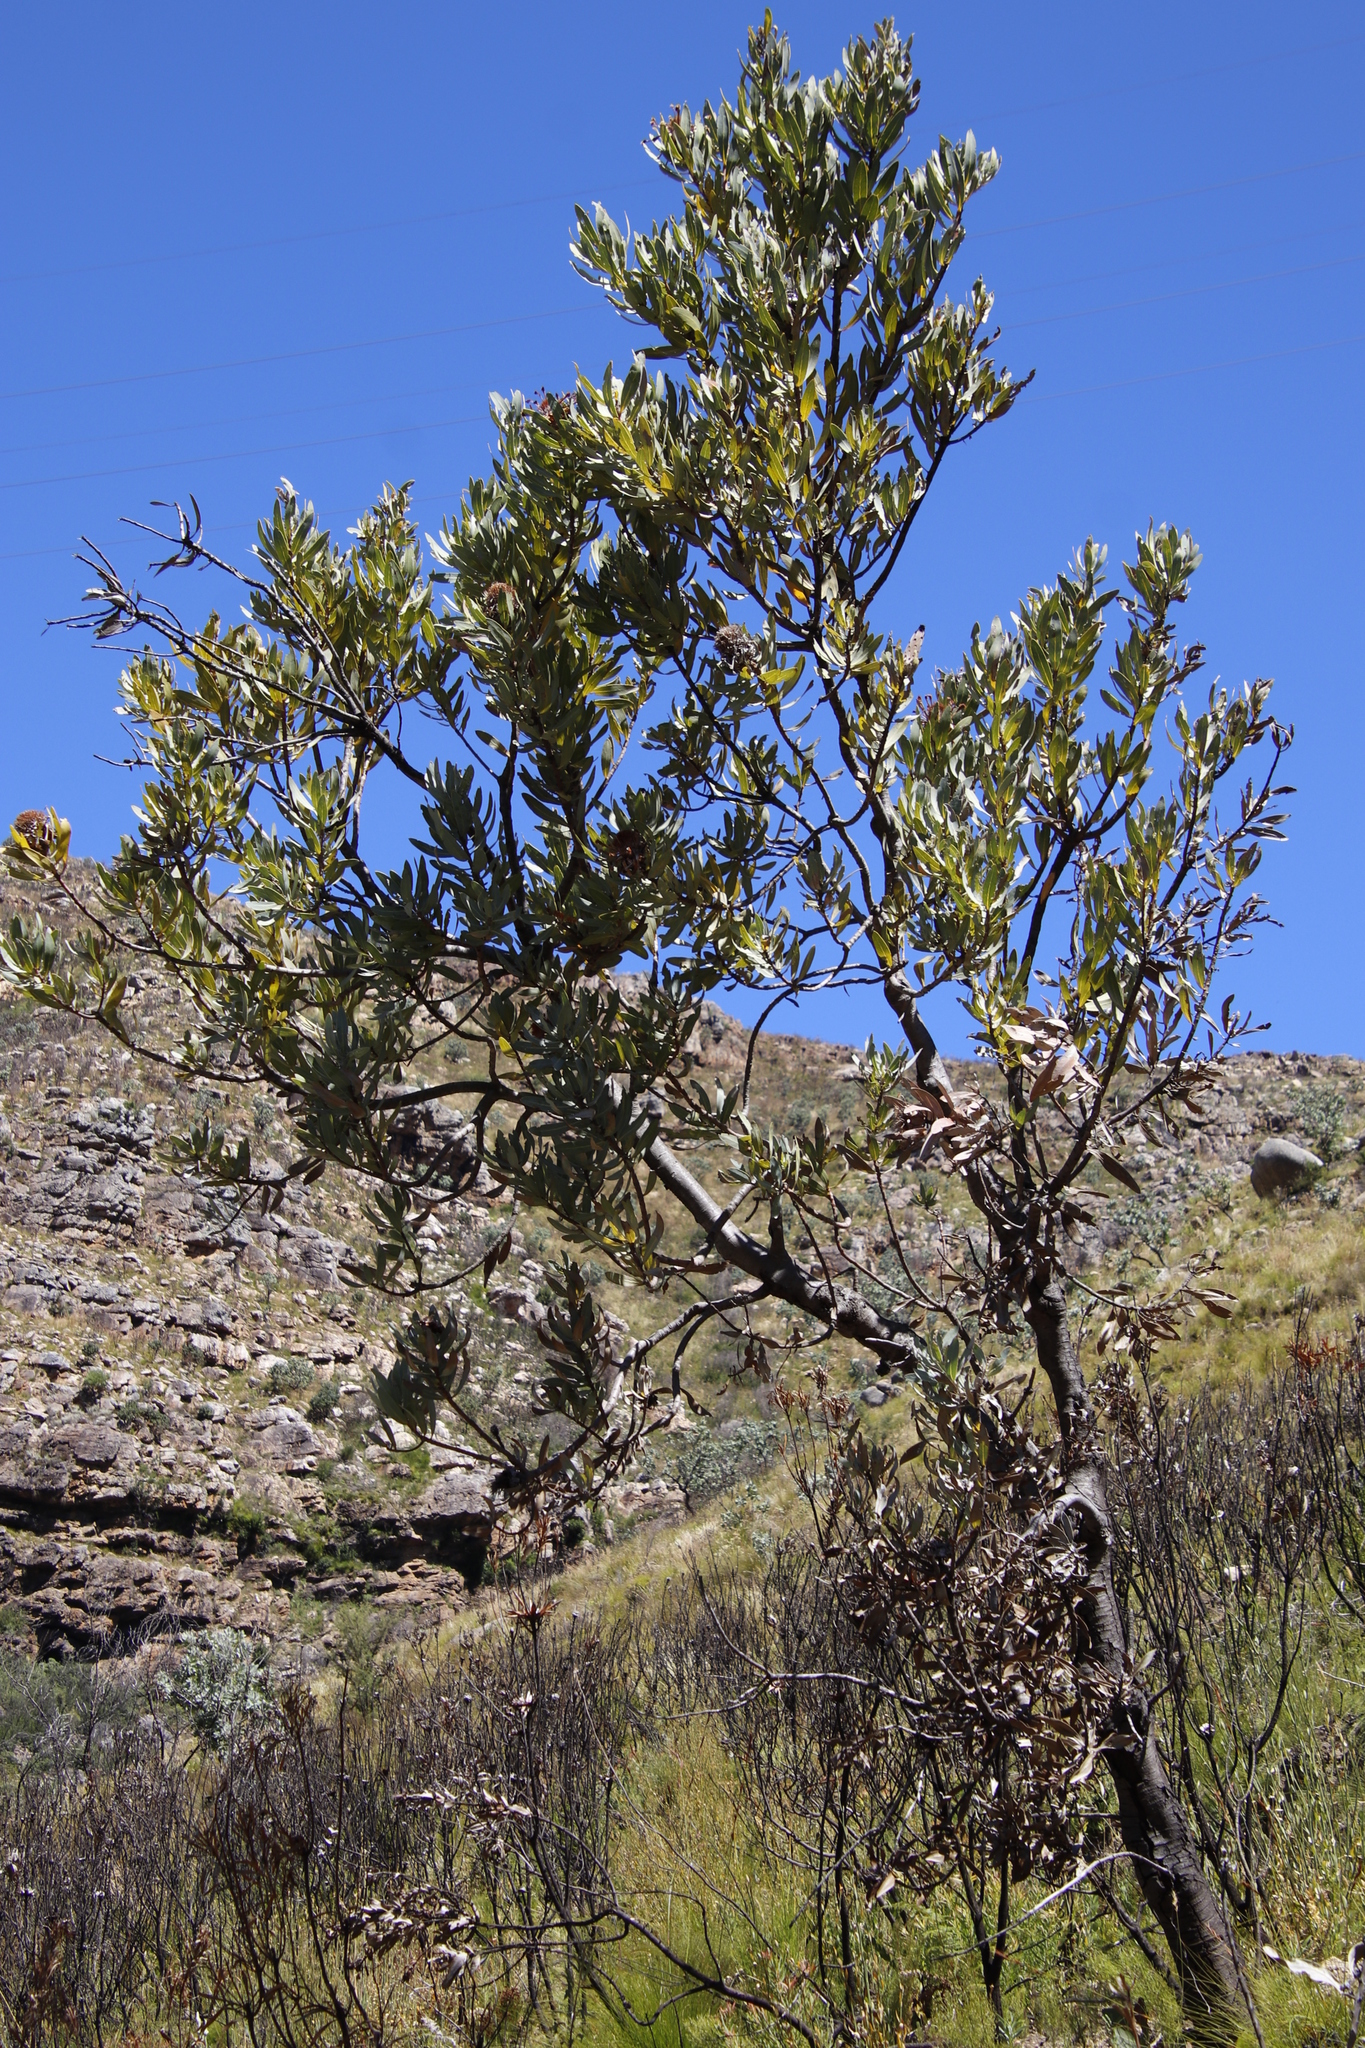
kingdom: Plantae
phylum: Tracheophyta
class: Magnoliopsida
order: Proteales
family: Proteaceae
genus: Protea
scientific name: Protea laurifolia
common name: Grey-leaf sugarbsh
